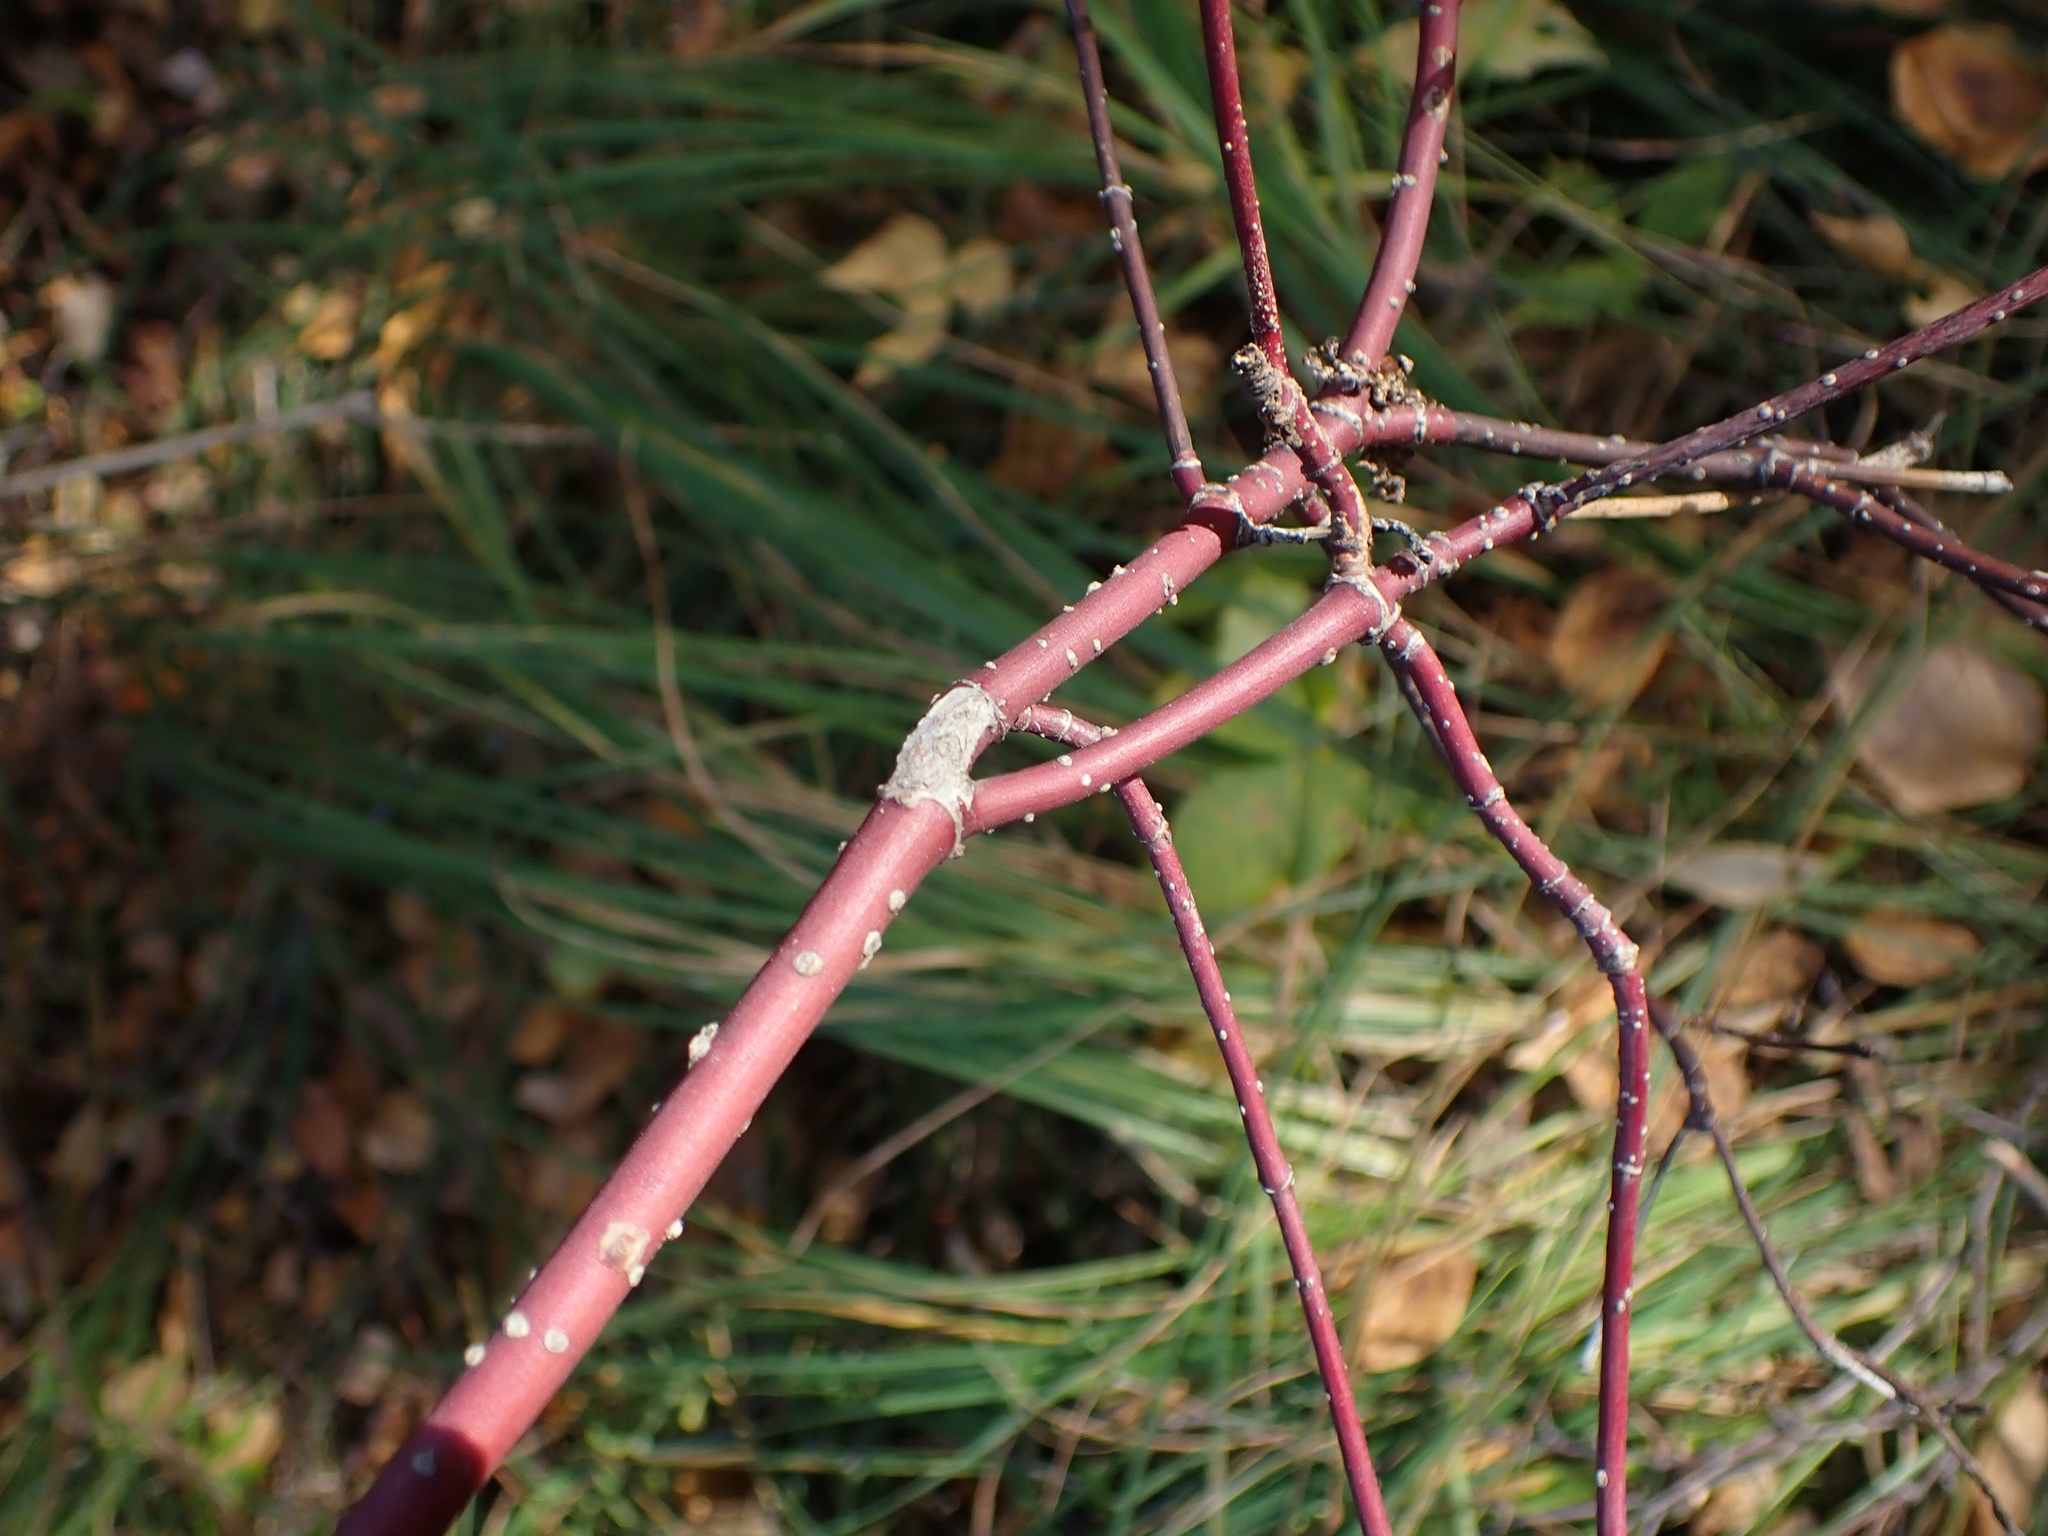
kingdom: Plantae
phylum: Tracheophyta
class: Magnoliopsida
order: Cornales
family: Cornaceae
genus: Cornus
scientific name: Cornus sericea
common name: Red-osier dogwood
